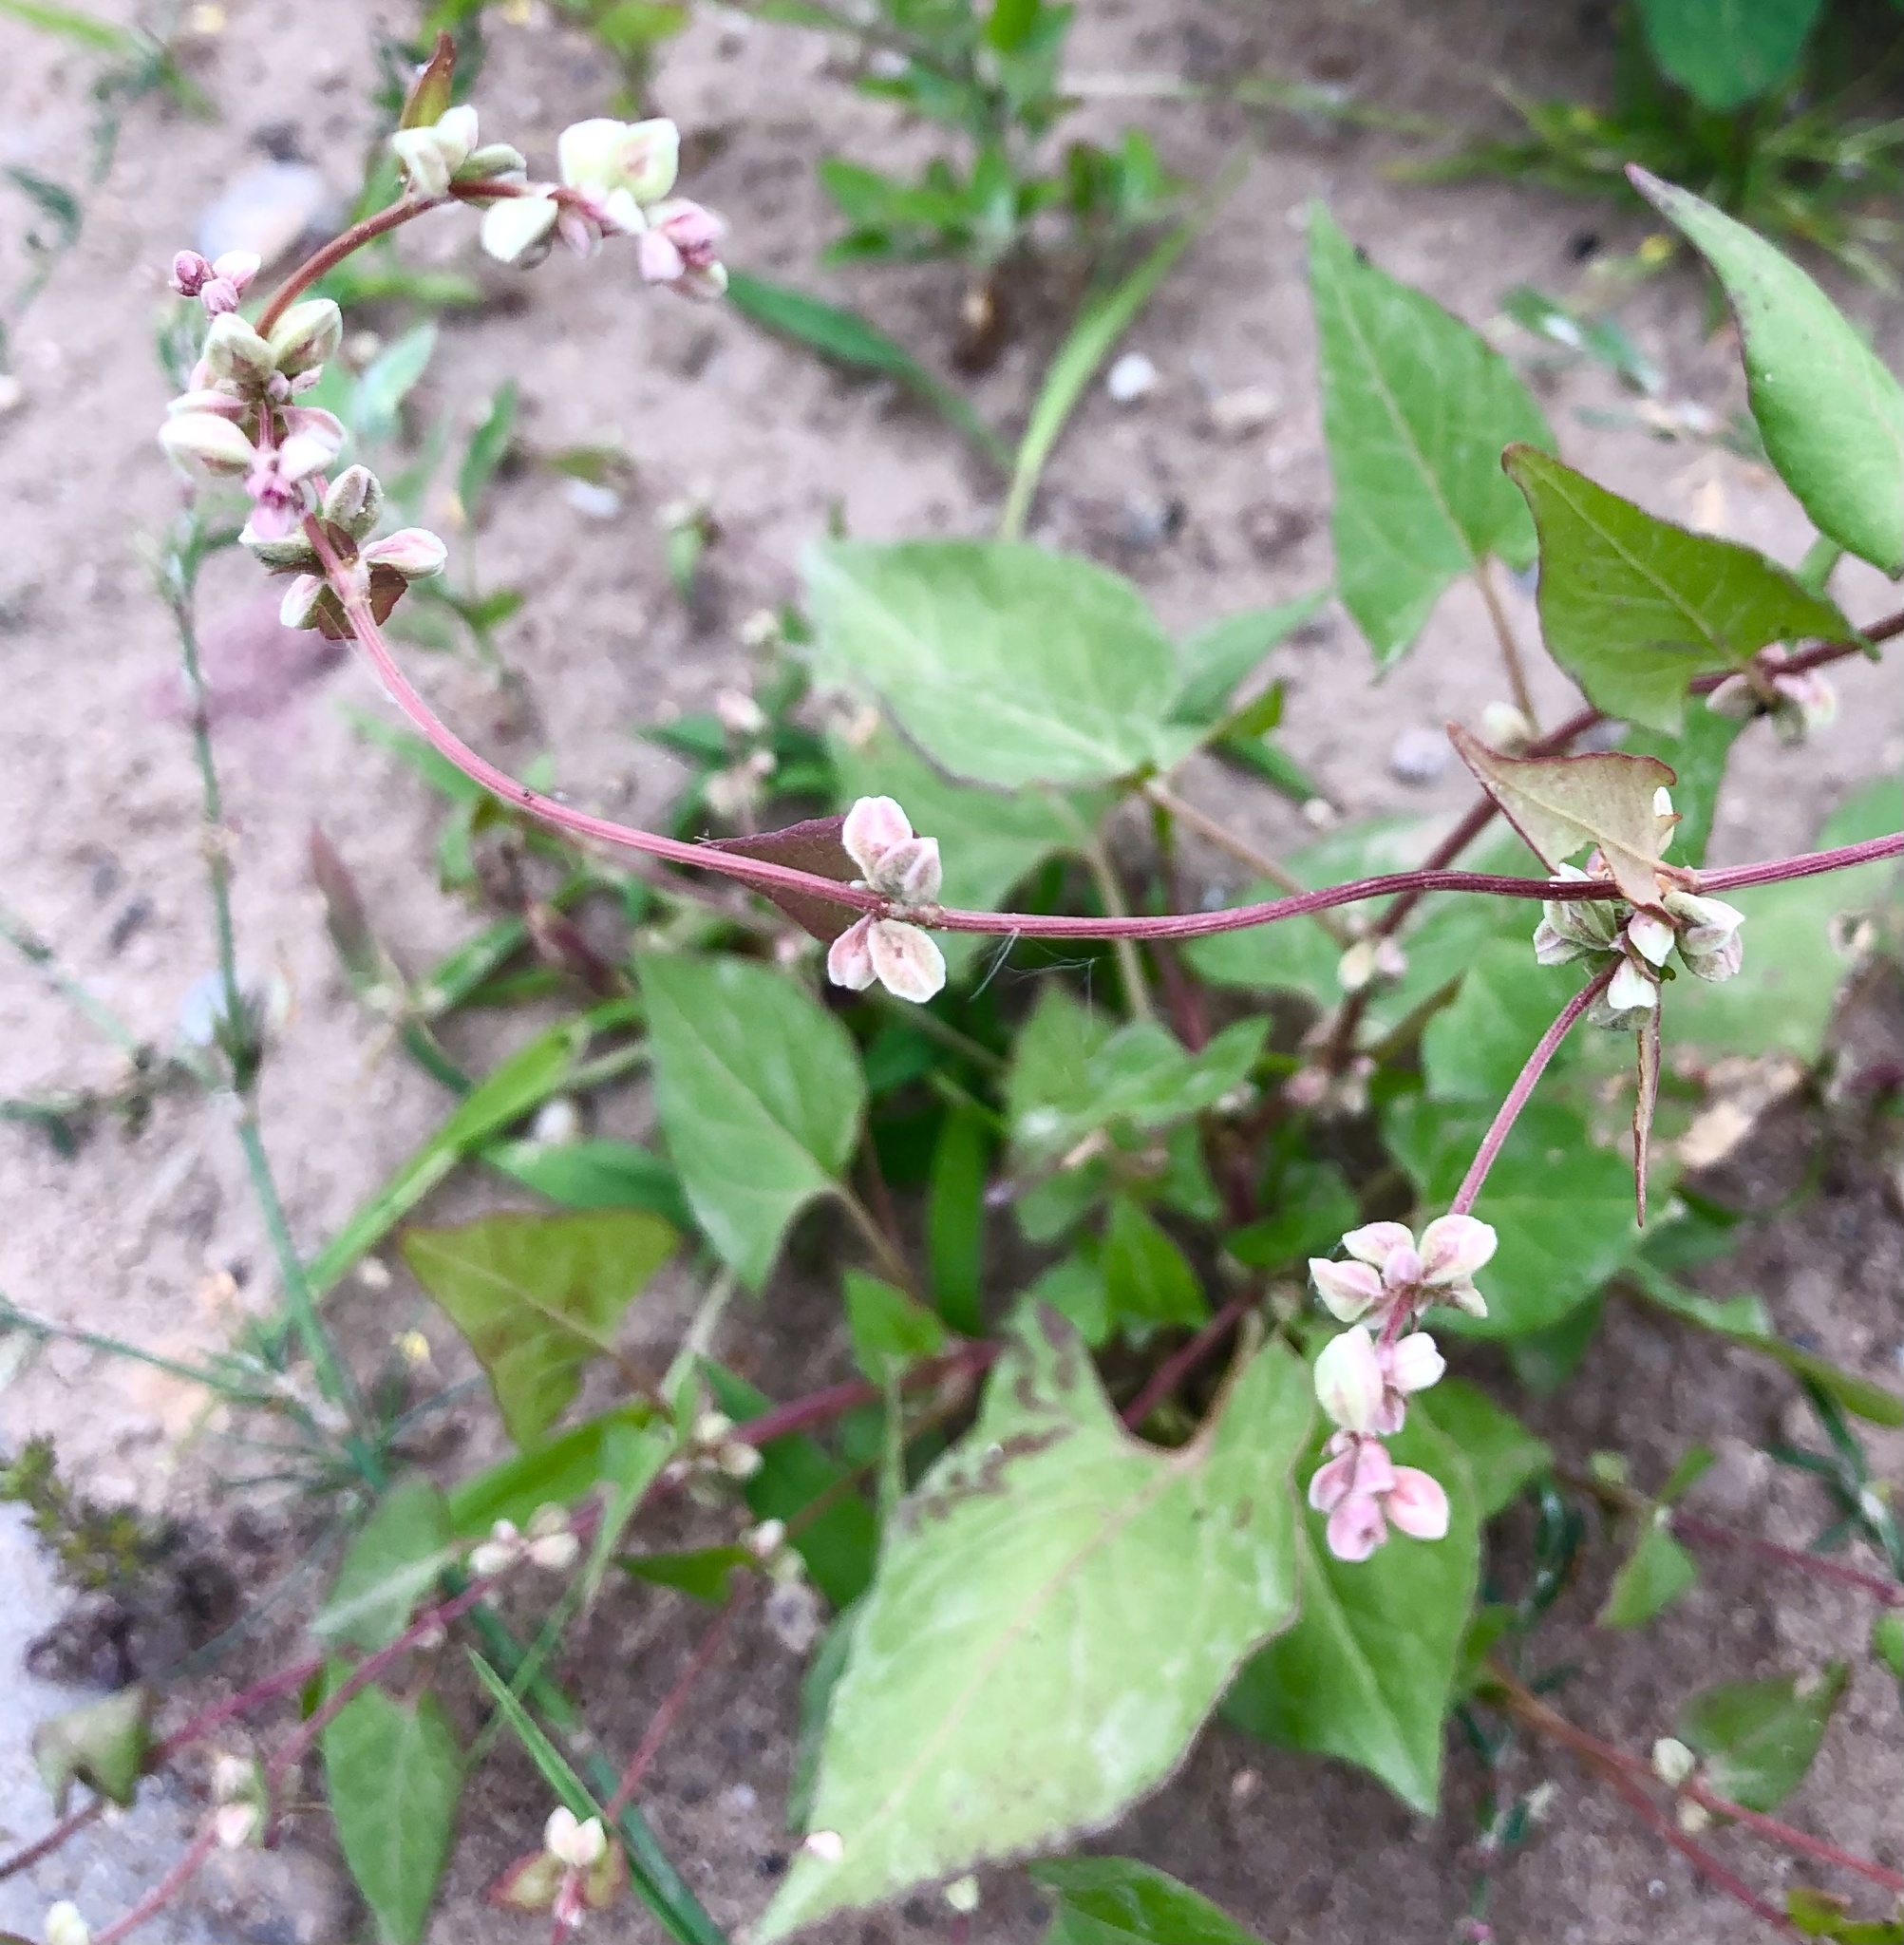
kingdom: Plantae
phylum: Tracheophyta
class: Magnoliopsida
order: Caryophyllales
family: Polygonaceae
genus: Fallopia
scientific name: Fallopia convolvulus
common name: Black bindweed
